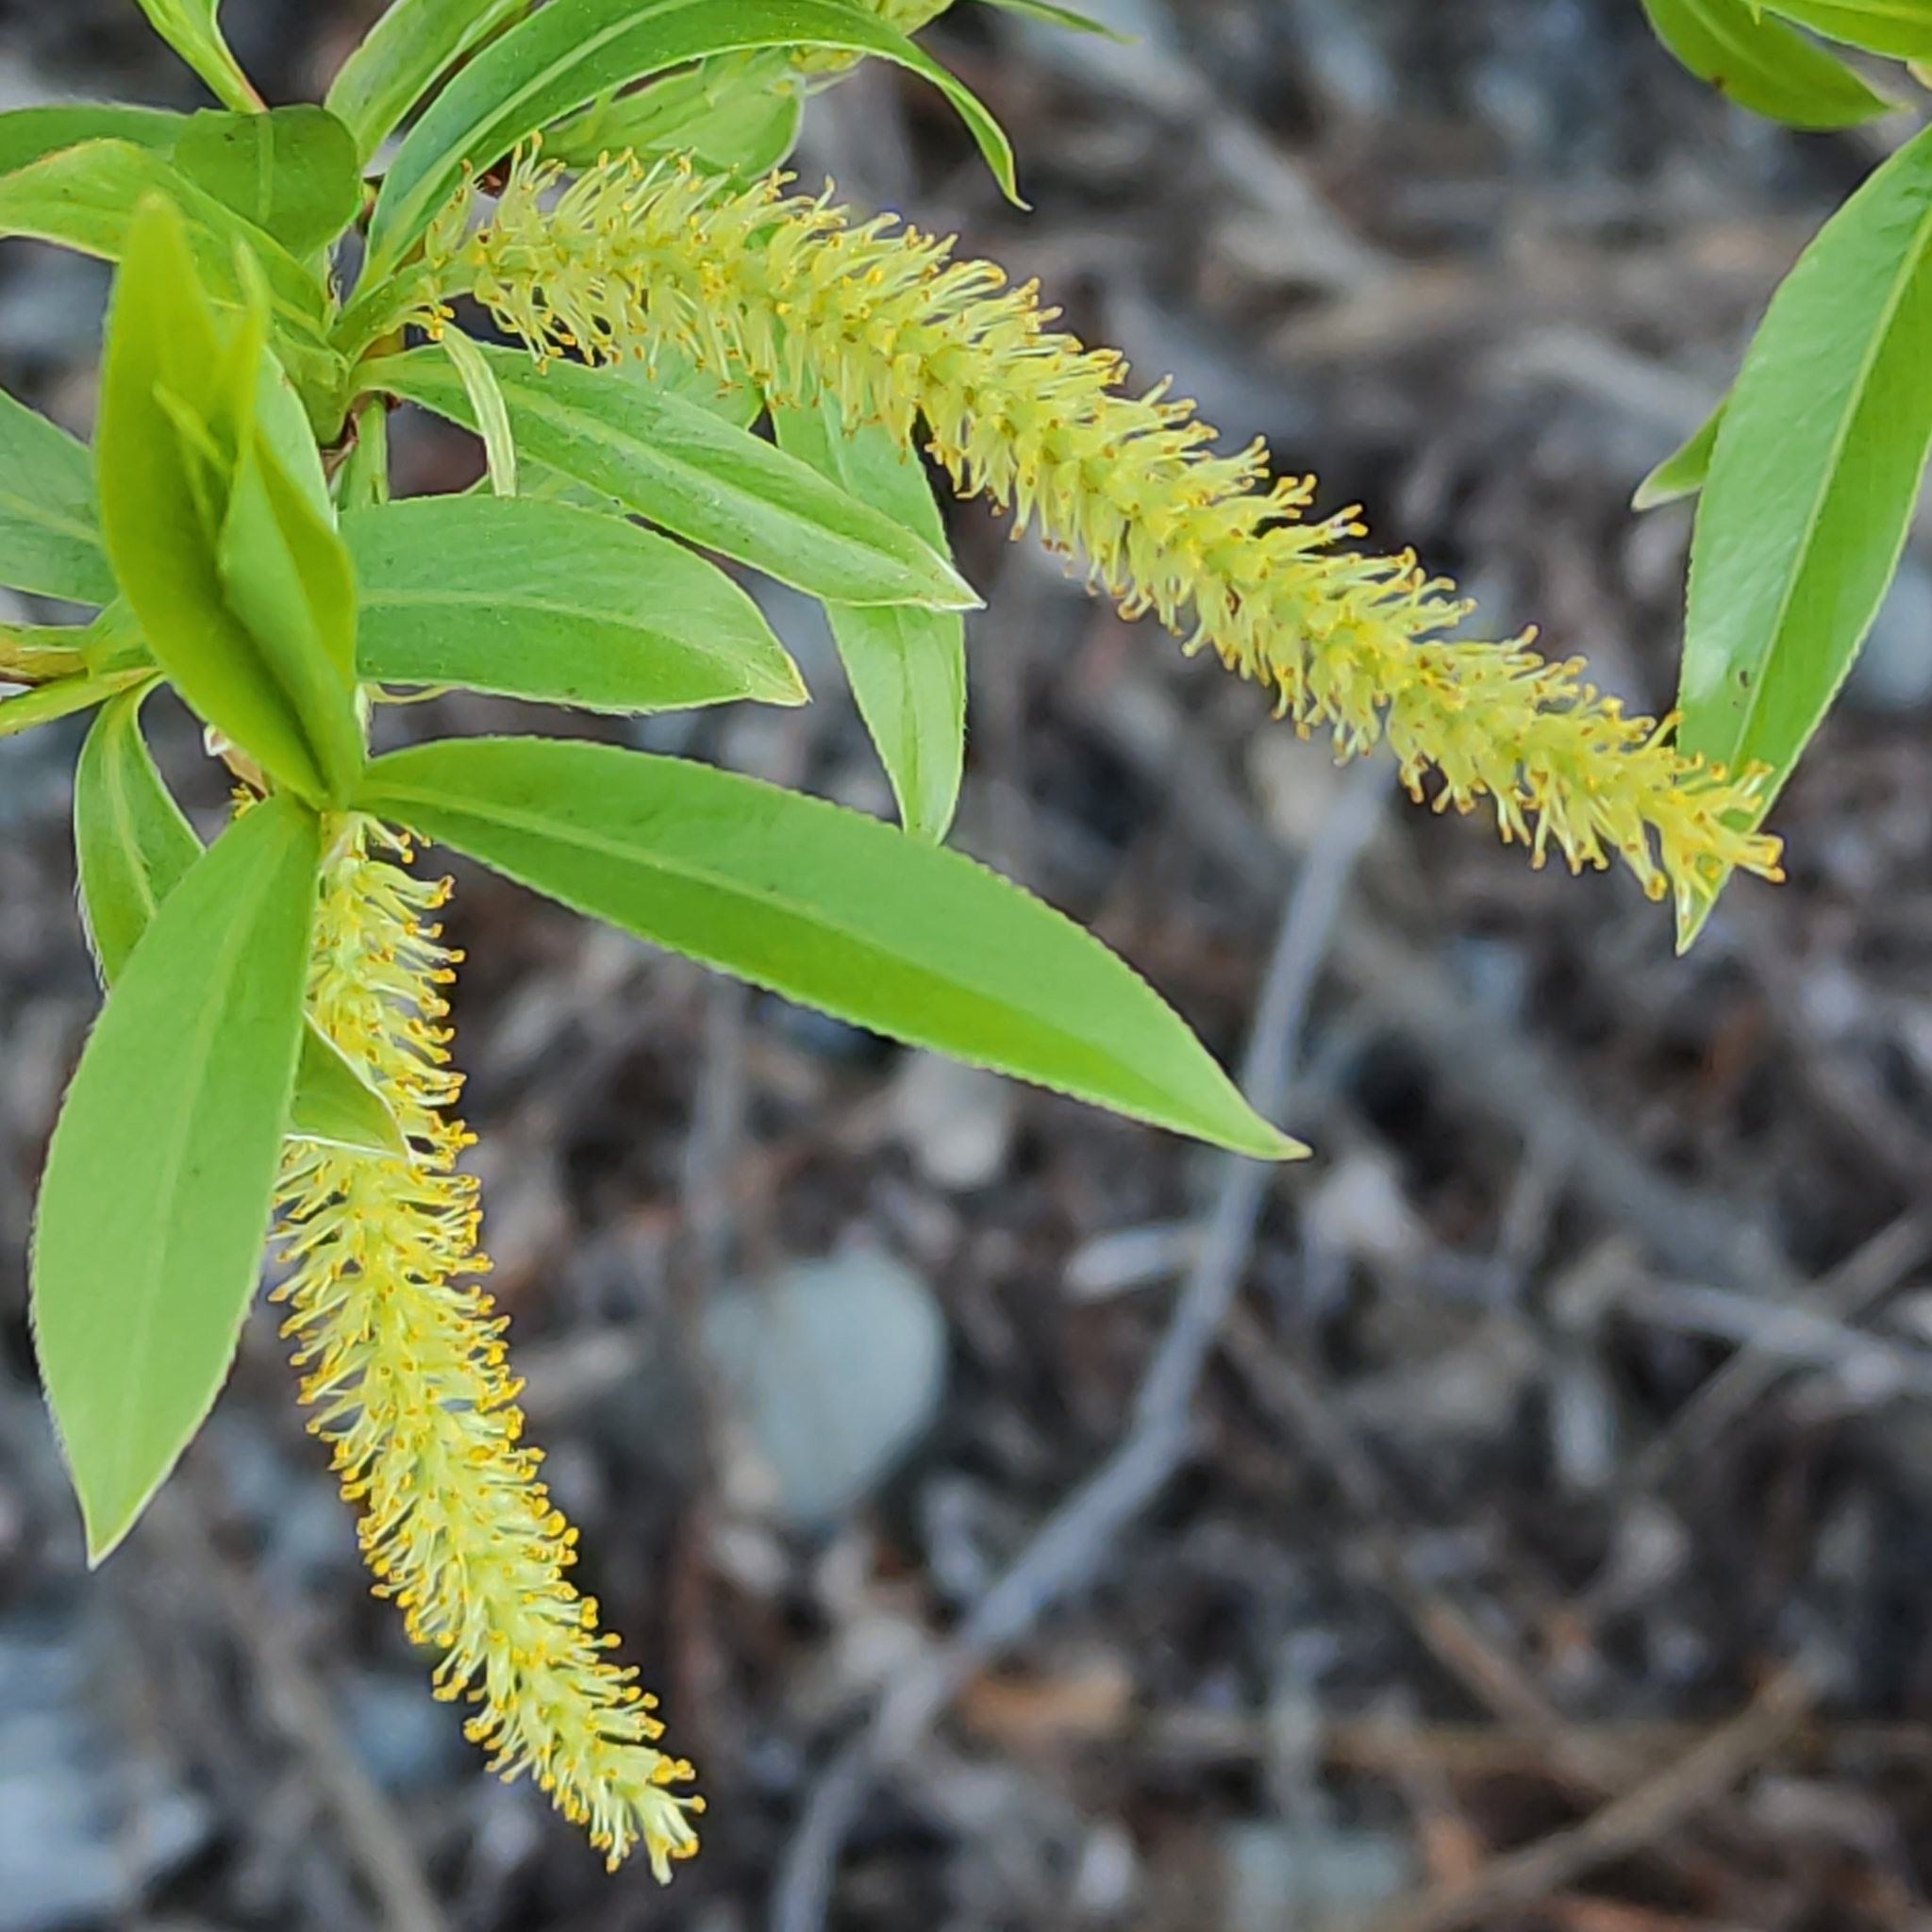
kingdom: Plantae
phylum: Tracheophyta
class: Magnoliopsida
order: Malpighiales
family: Salicaceae
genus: Salix
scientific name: Salix fragilis
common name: Crack willow
